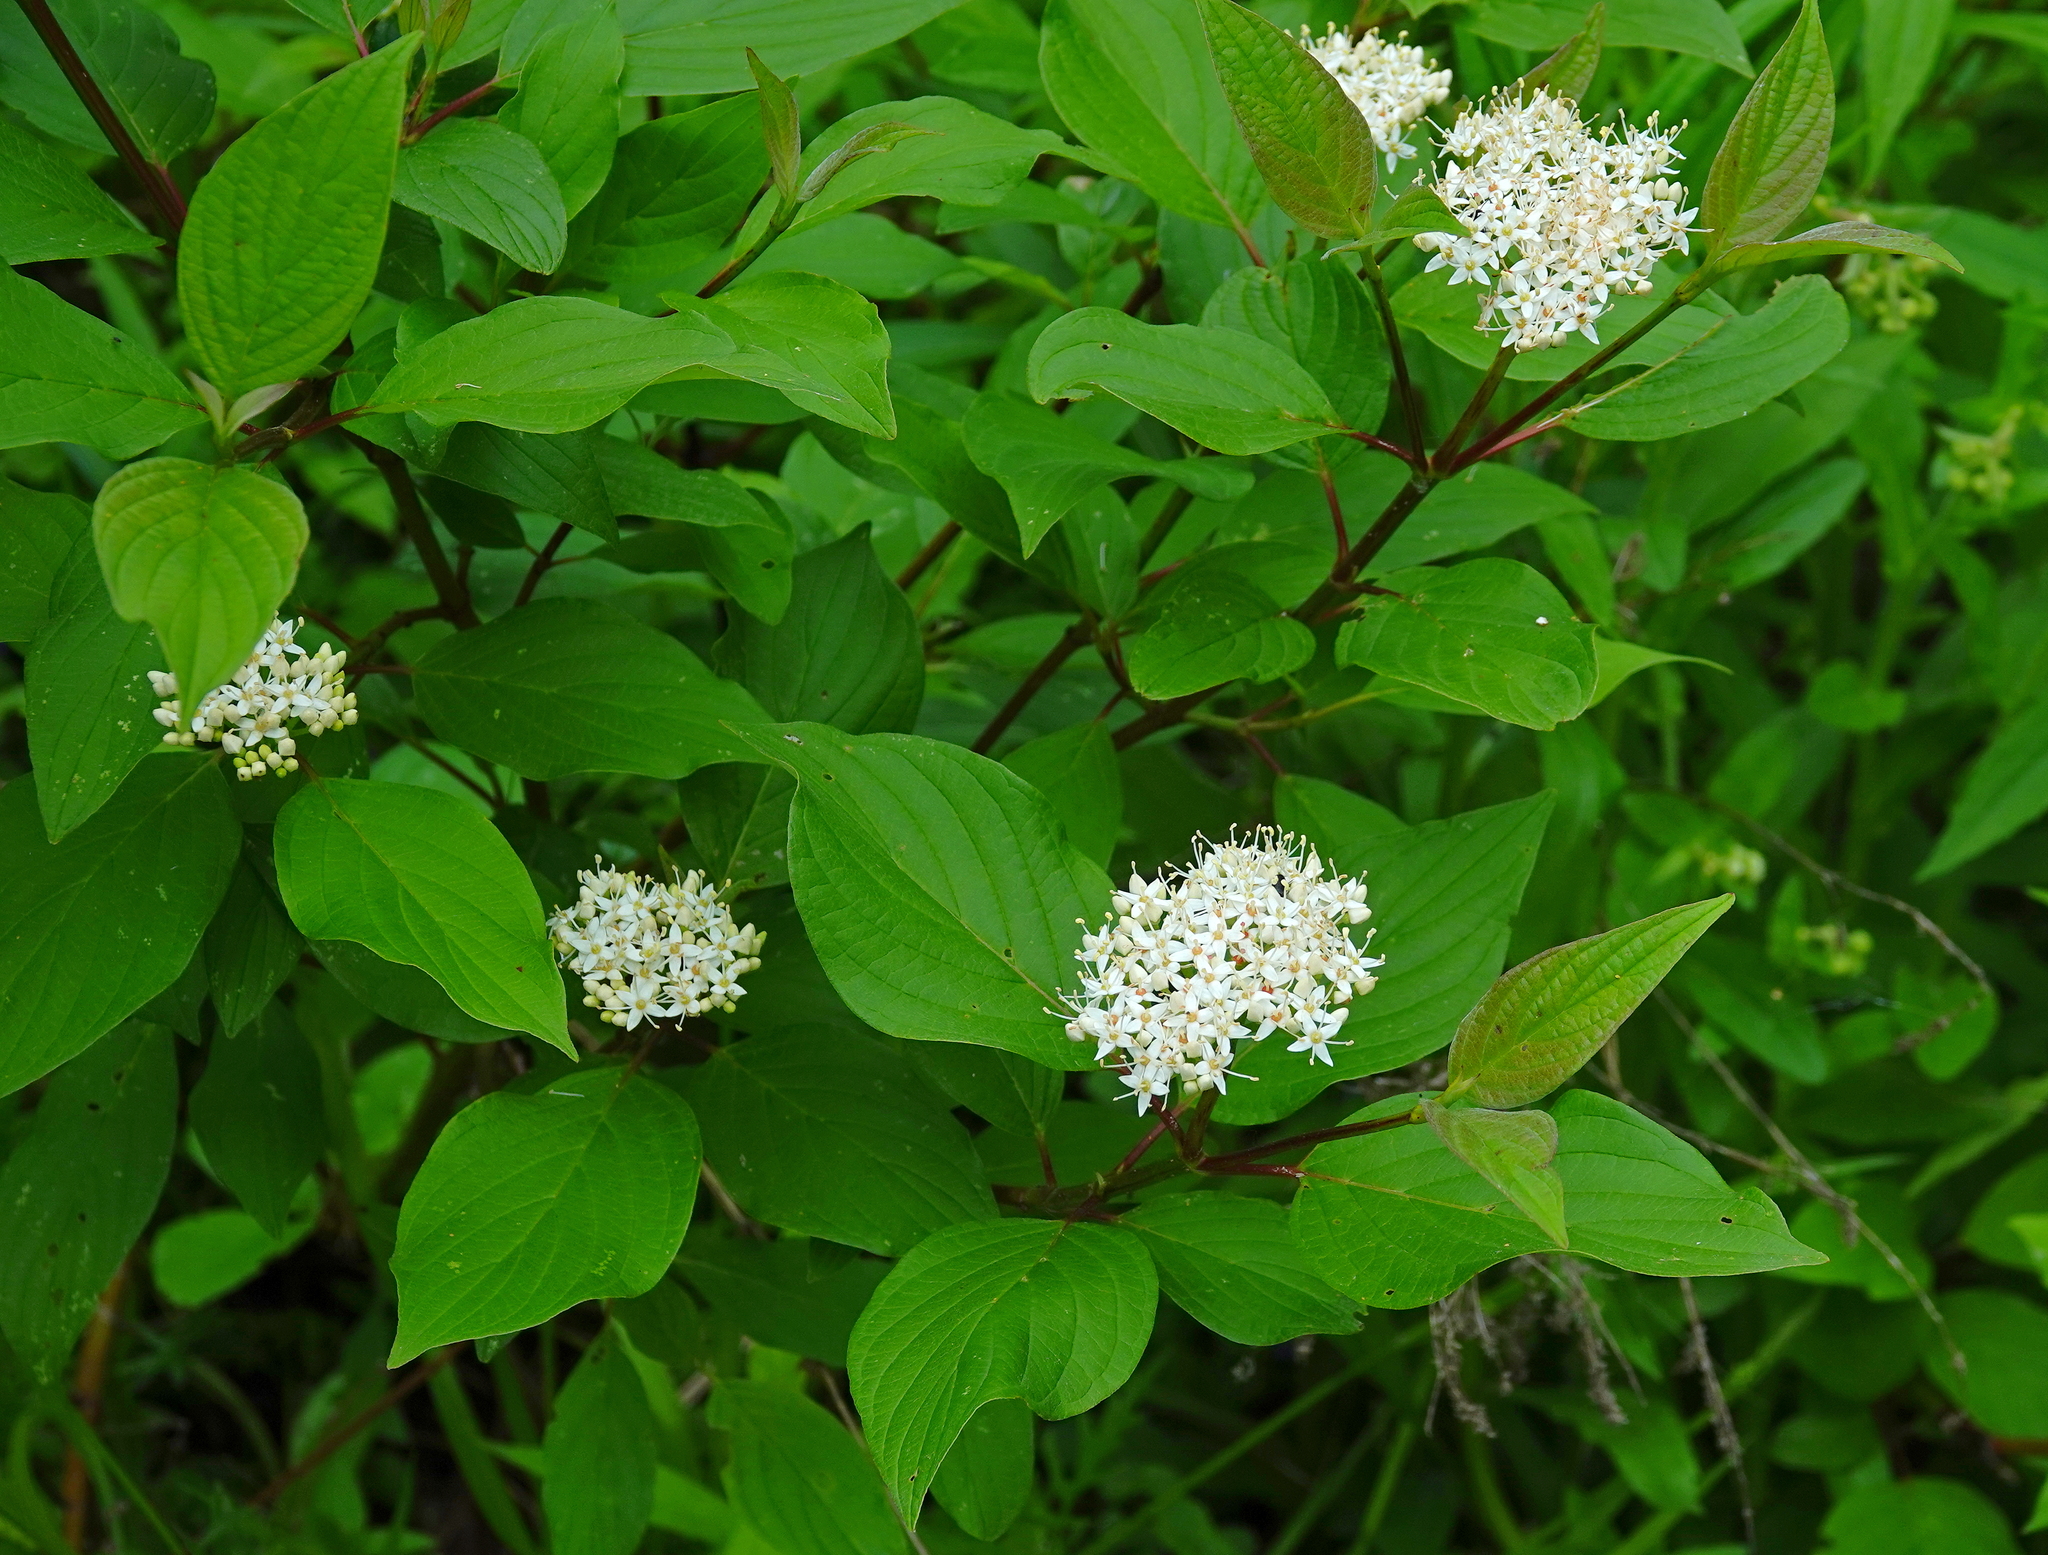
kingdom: Plantae
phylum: Tracheophyta
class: Magnoliopsida
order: Cornales
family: Cornaceae
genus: Cornus
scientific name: Cornus sericea
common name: Red-osier dogwood
